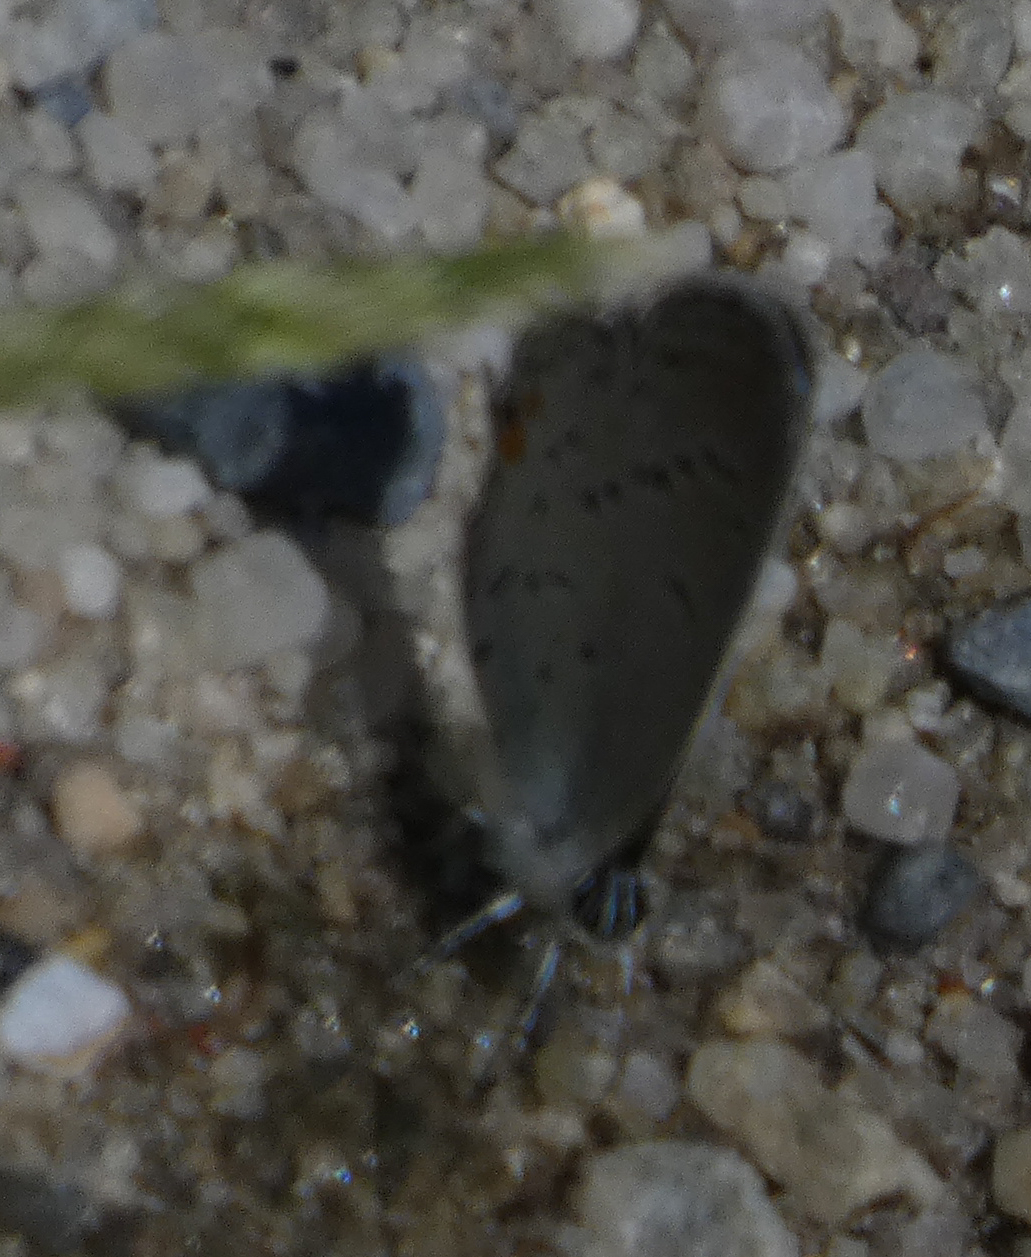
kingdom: Animalia
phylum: Arthropoda
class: Insecta
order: Lepidoptera
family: Lycaenidae
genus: Elkalyce
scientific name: Elkalyce comyntas
